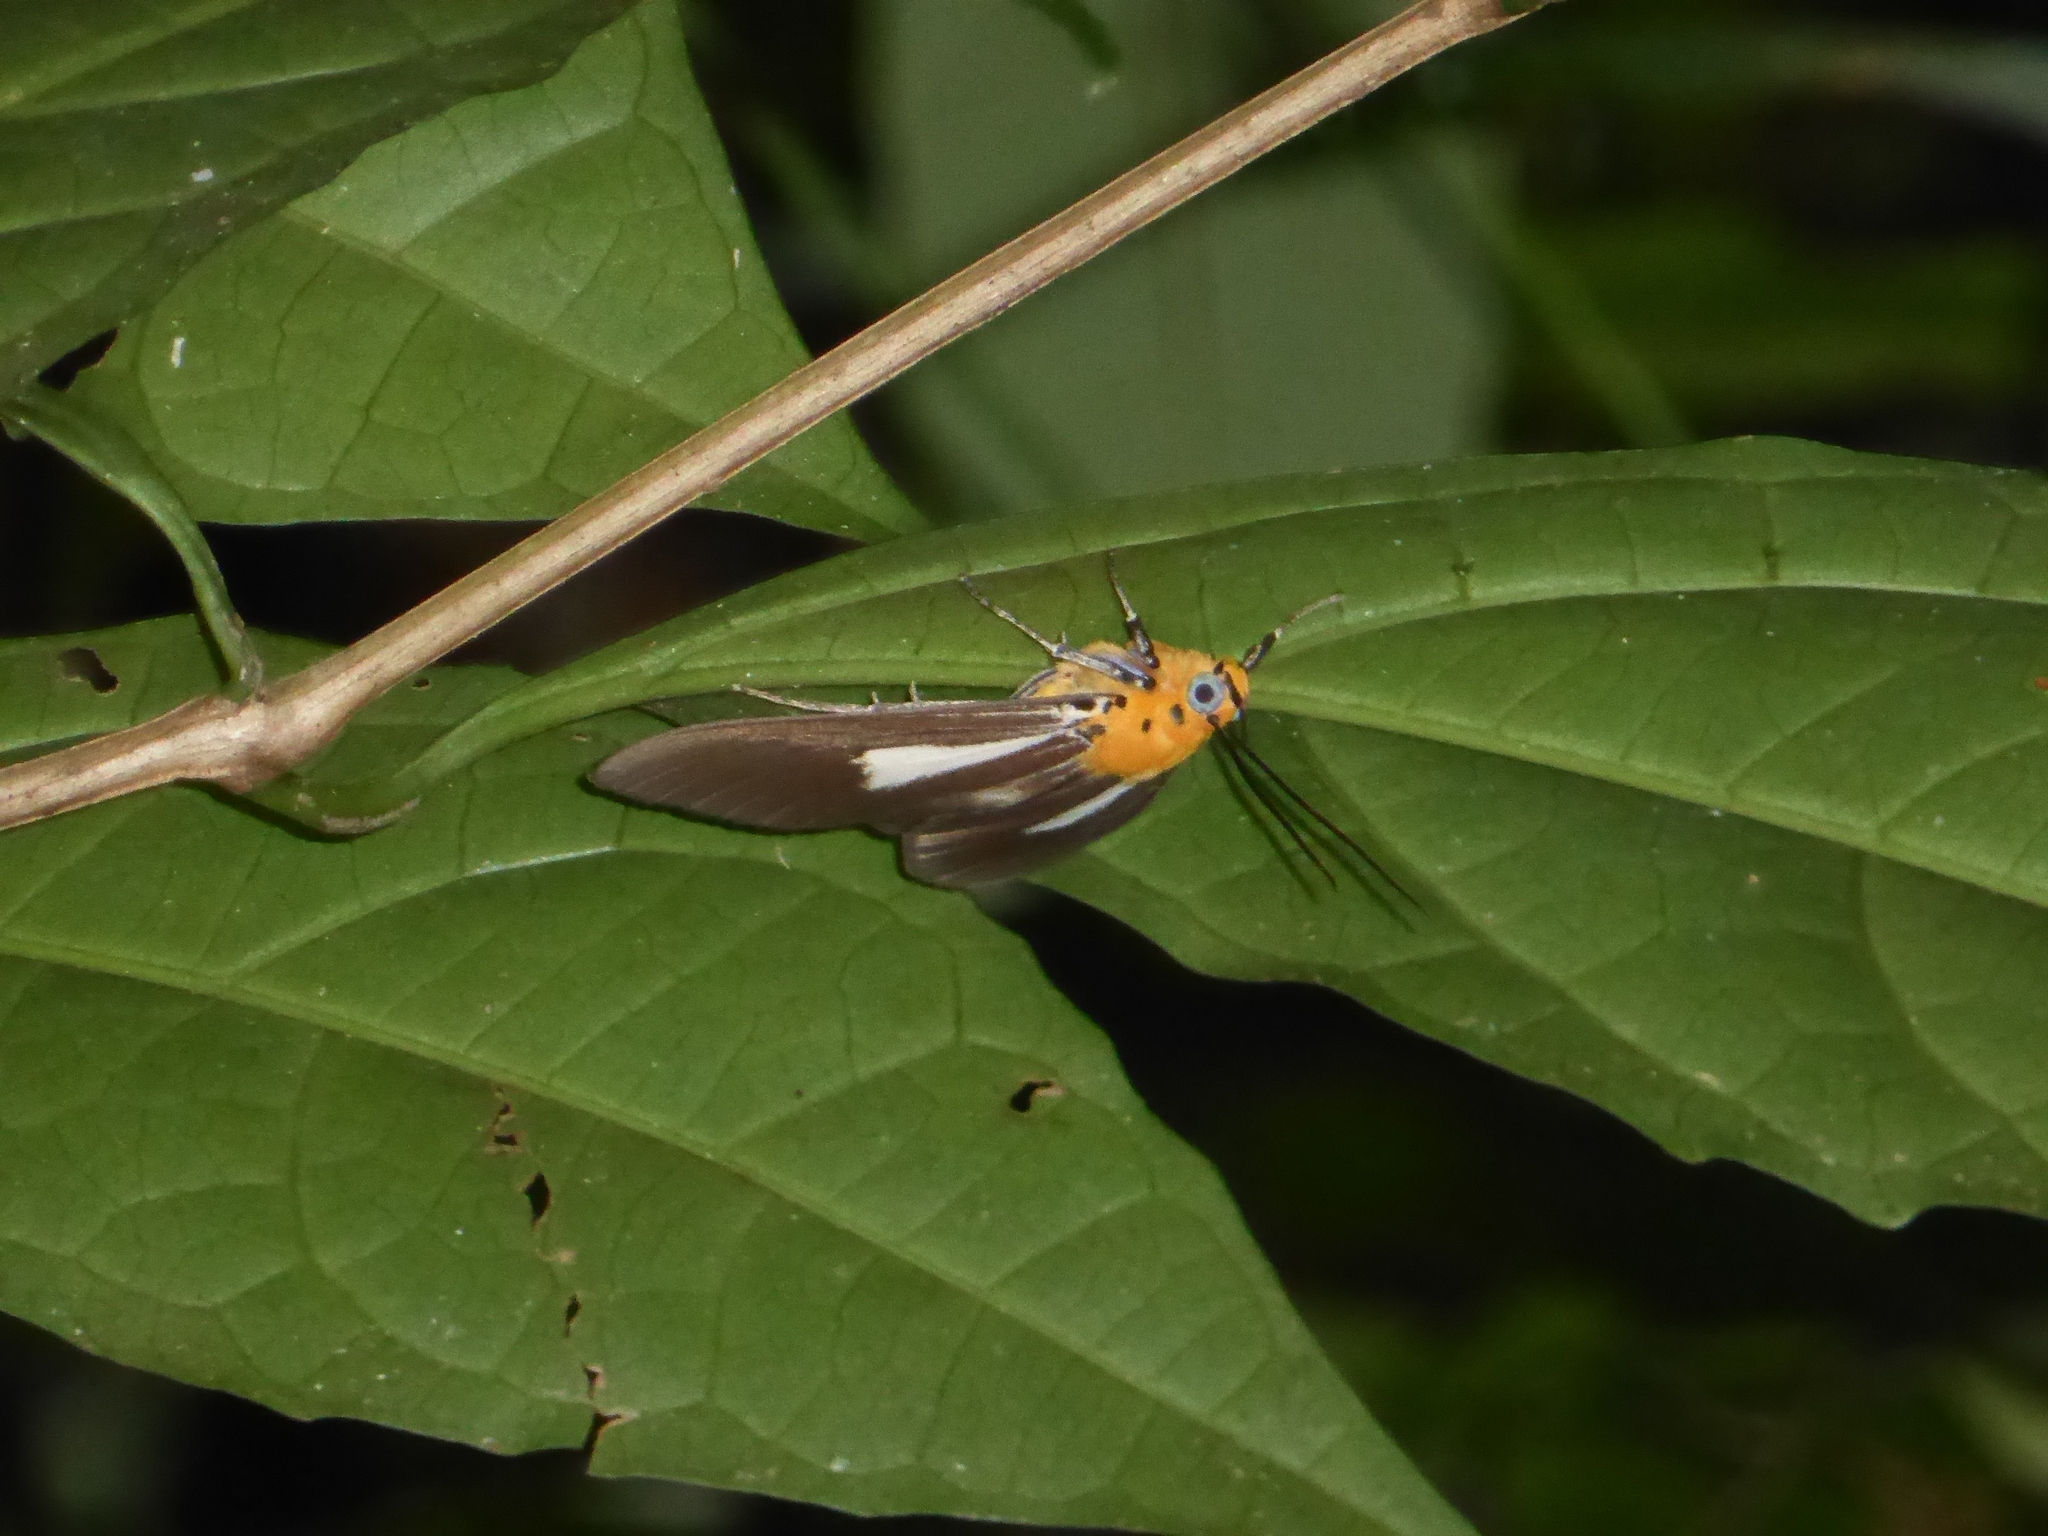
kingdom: Animalia
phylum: Arthropoda
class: Insecta
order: Lepidoptera
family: Erebidae
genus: Asota
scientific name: Asota heliconia
